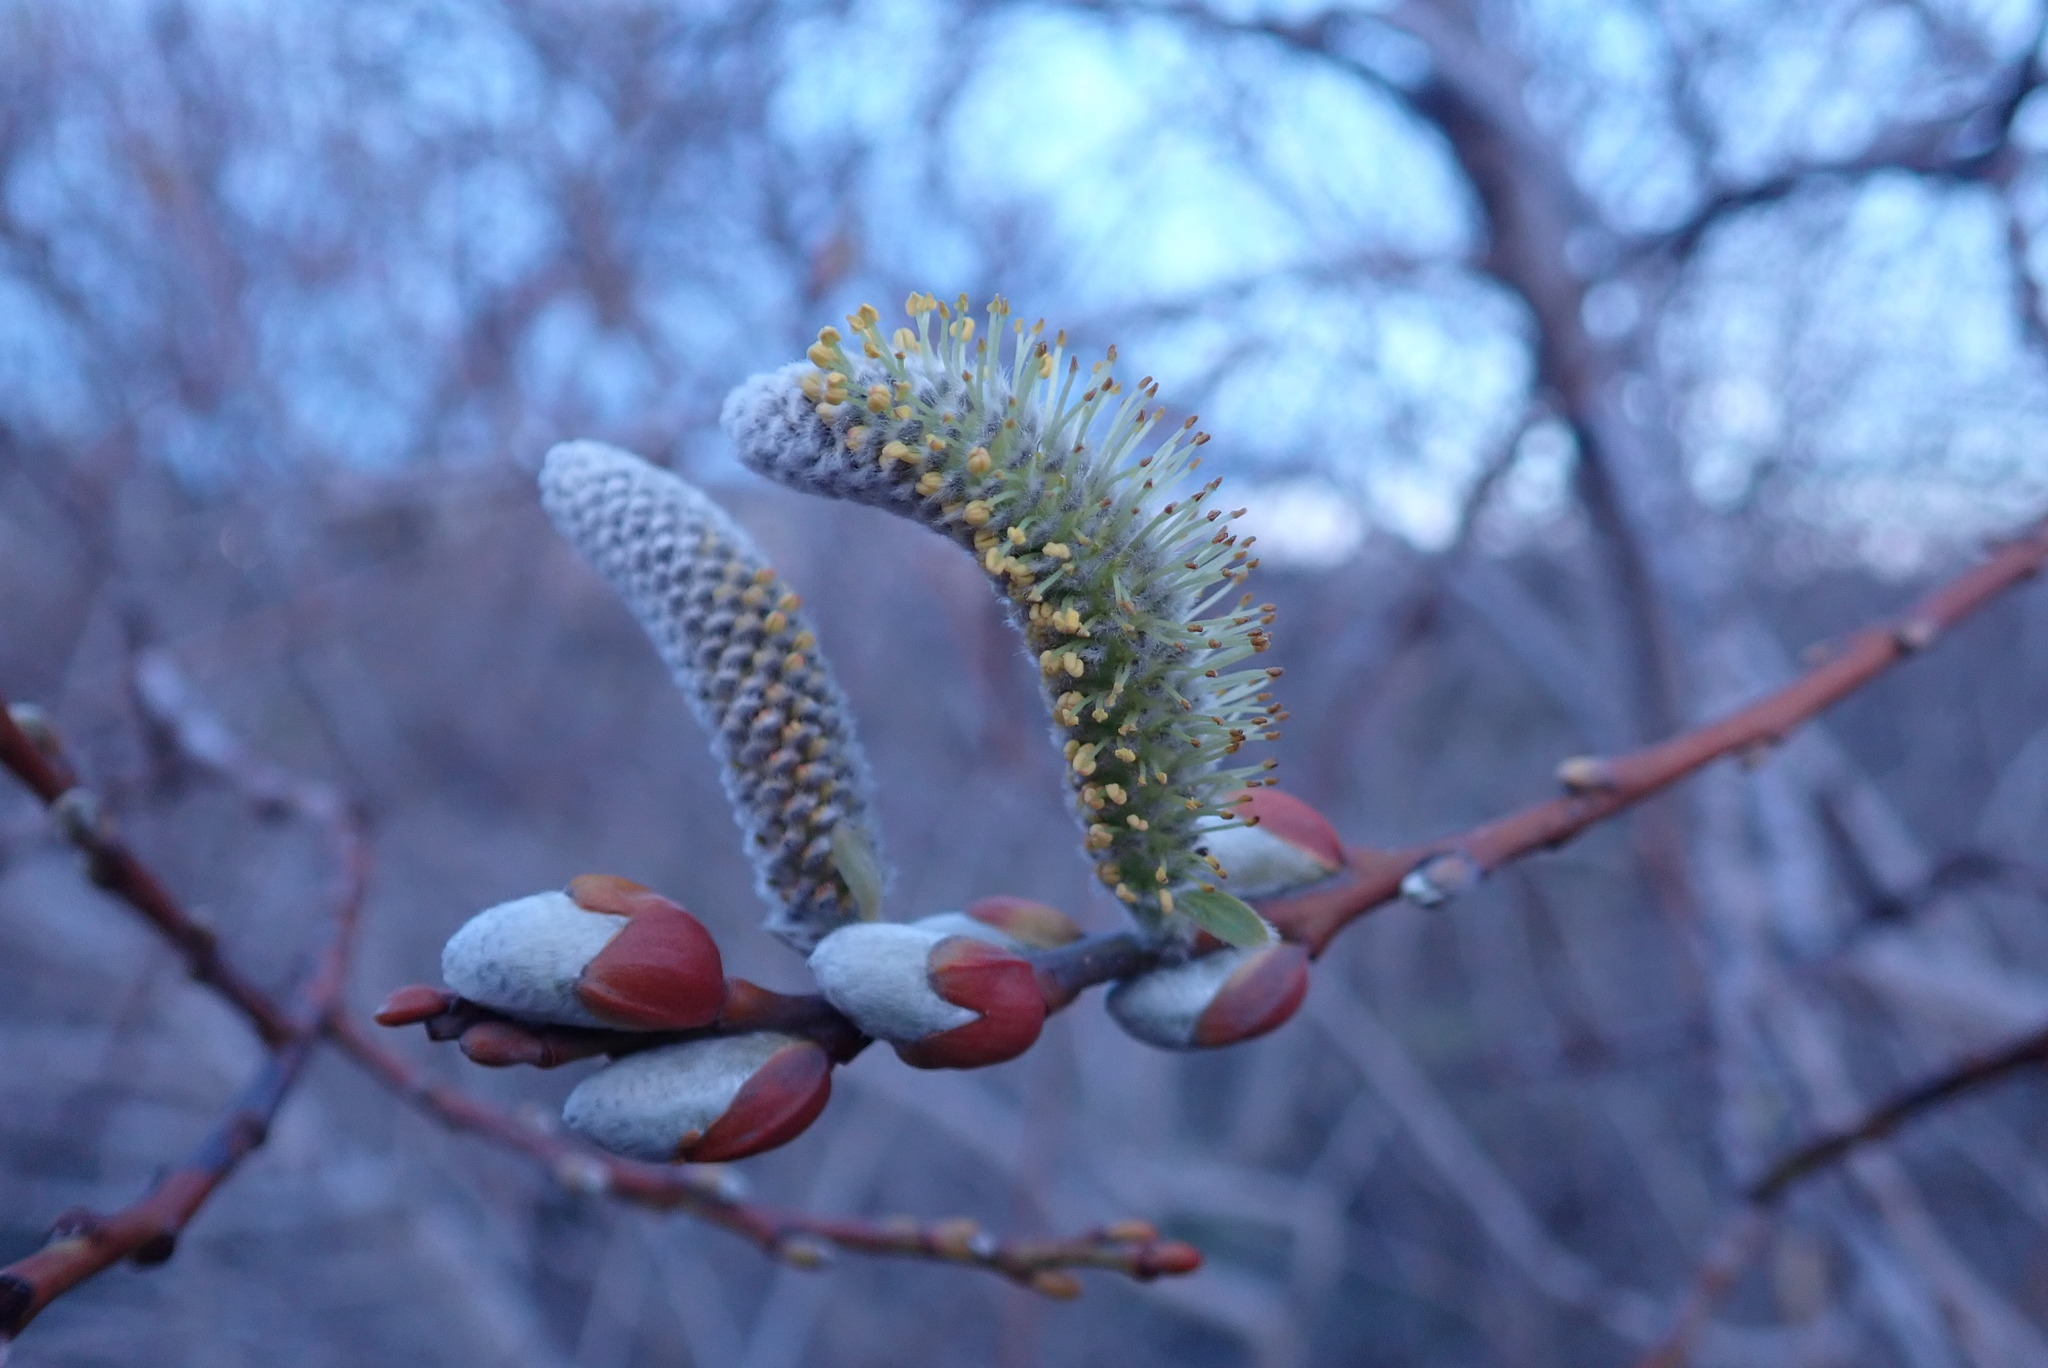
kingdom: Plantae
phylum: Tracheophyta
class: Magnoliopsida
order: Malpighiales
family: Salicaceae
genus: Salix
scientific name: Salix lasiolepis
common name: Arroyo willow
